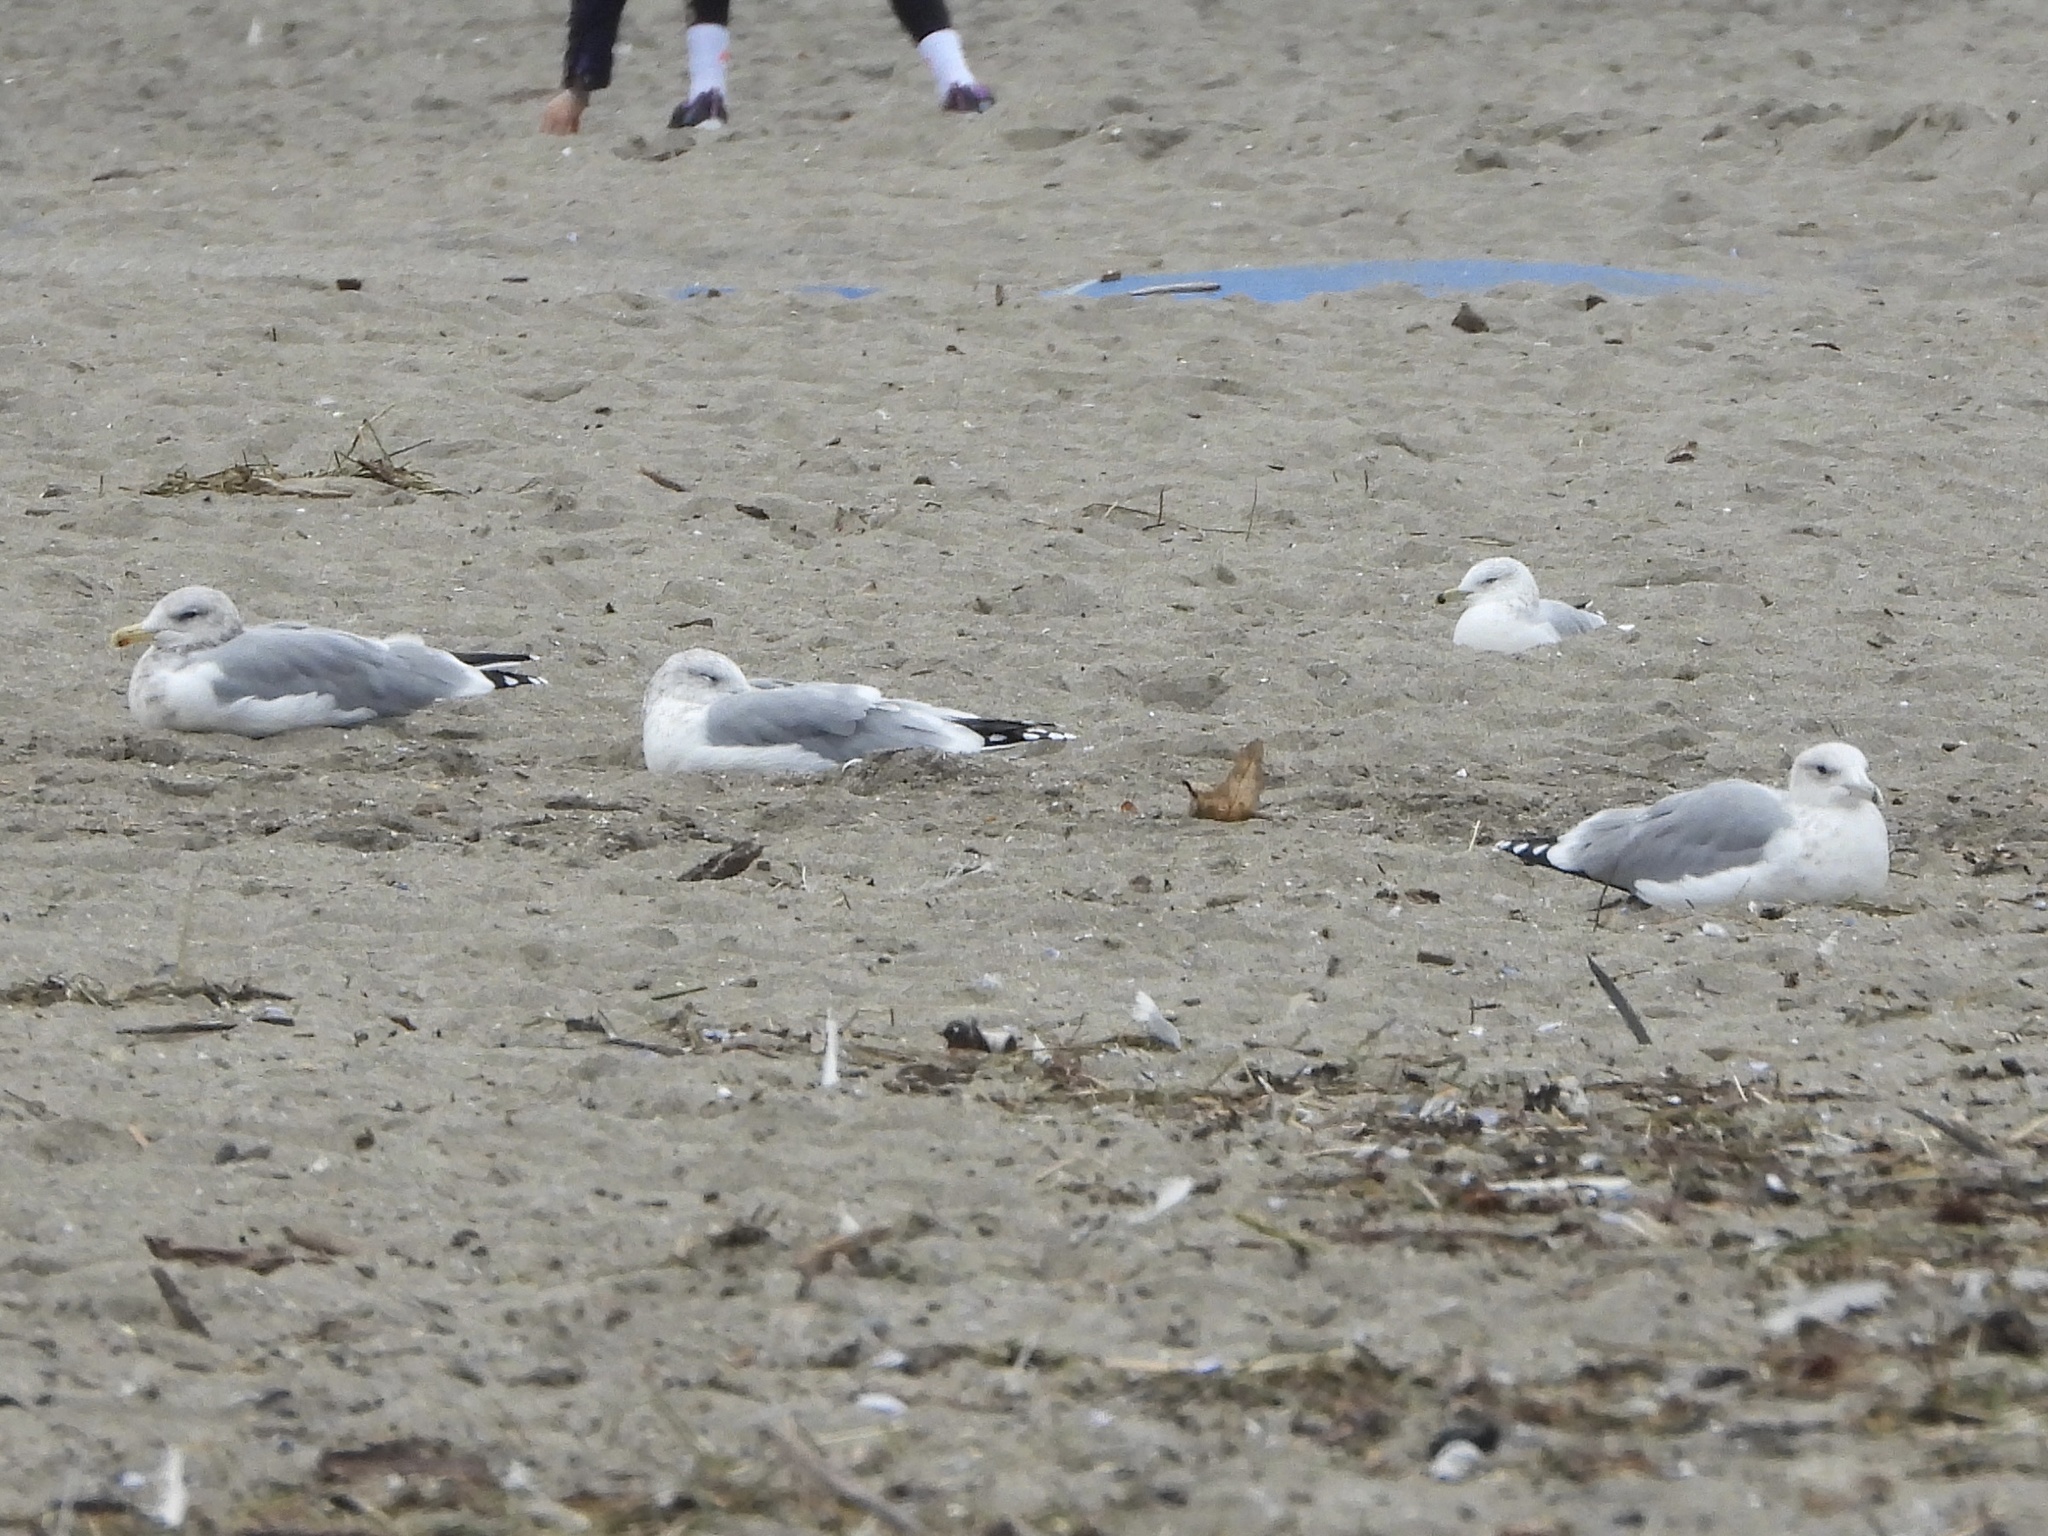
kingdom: Animalia
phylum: Chordata
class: Aves
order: Charadriiformes
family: Laridae
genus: Larus
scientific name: Larus californicus
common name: California gull
